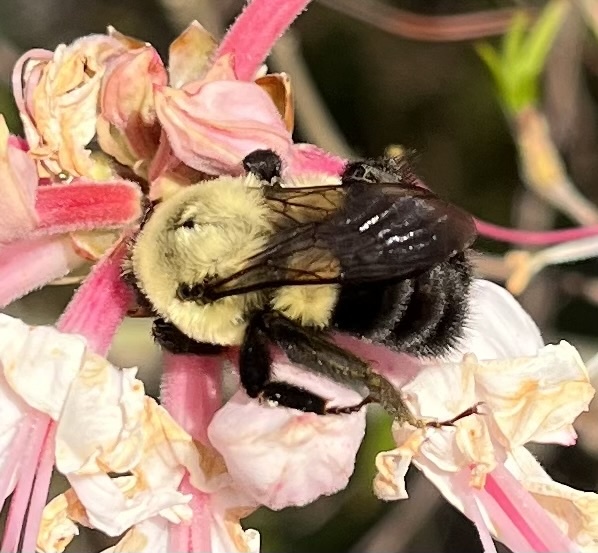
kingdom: Animalia
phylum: Arthropoda
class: Insecta
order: Hymenoptera
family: Apidae
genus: Bombus
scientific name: Bombus impatiens
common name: Common eastern bumble bee
